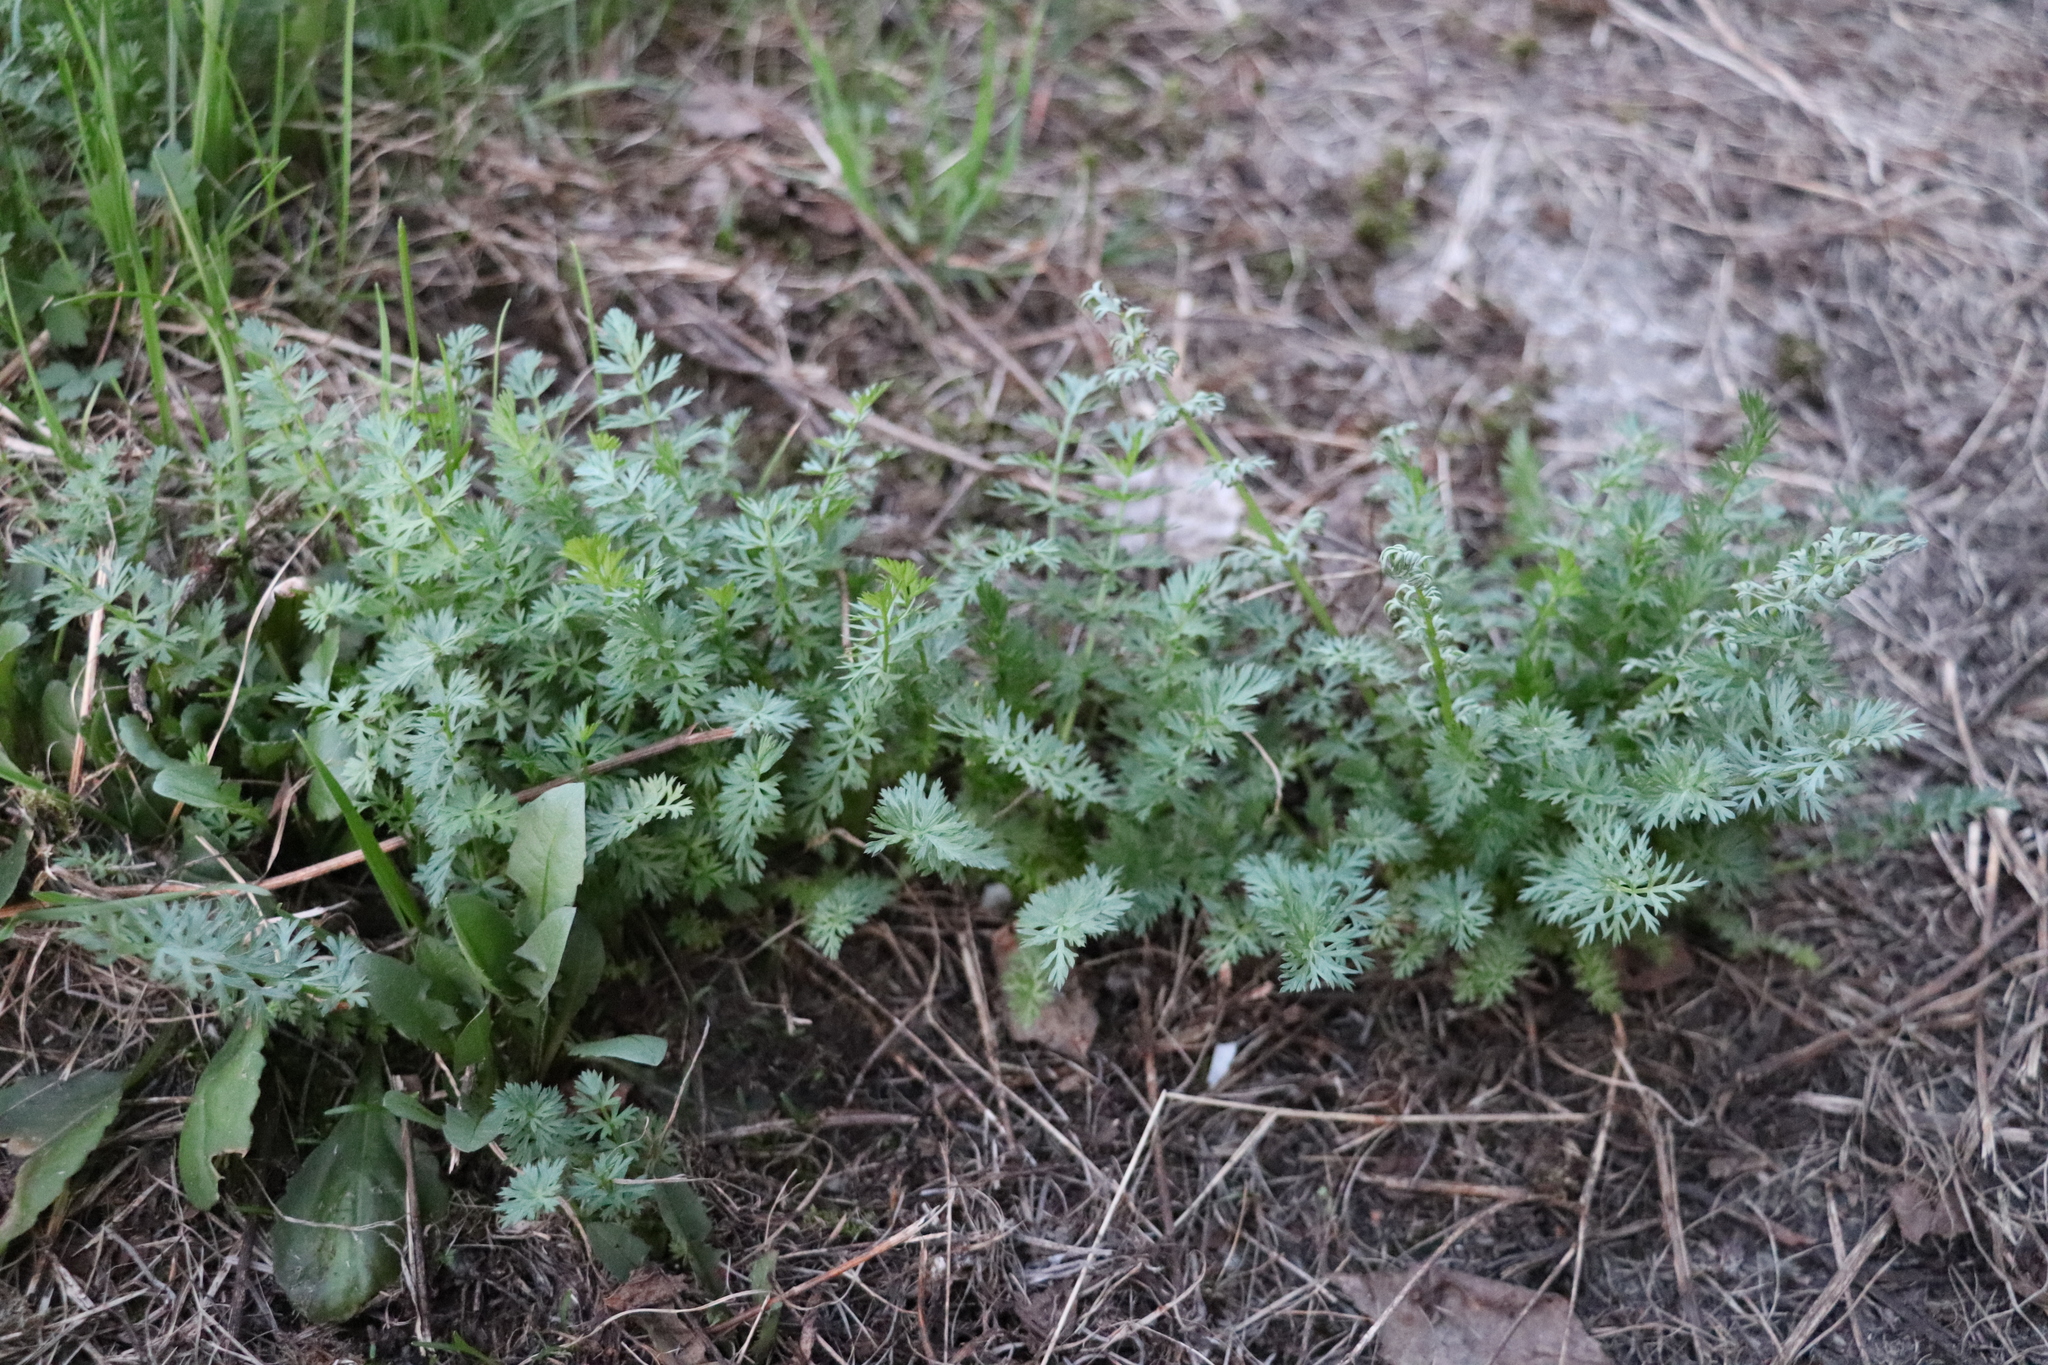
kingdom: Plantae
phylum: Tracheophyta
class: Magnoliopsida
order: Apiales
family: Apiaceae
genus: Carum
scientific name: Carum carvi
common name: Caraway
